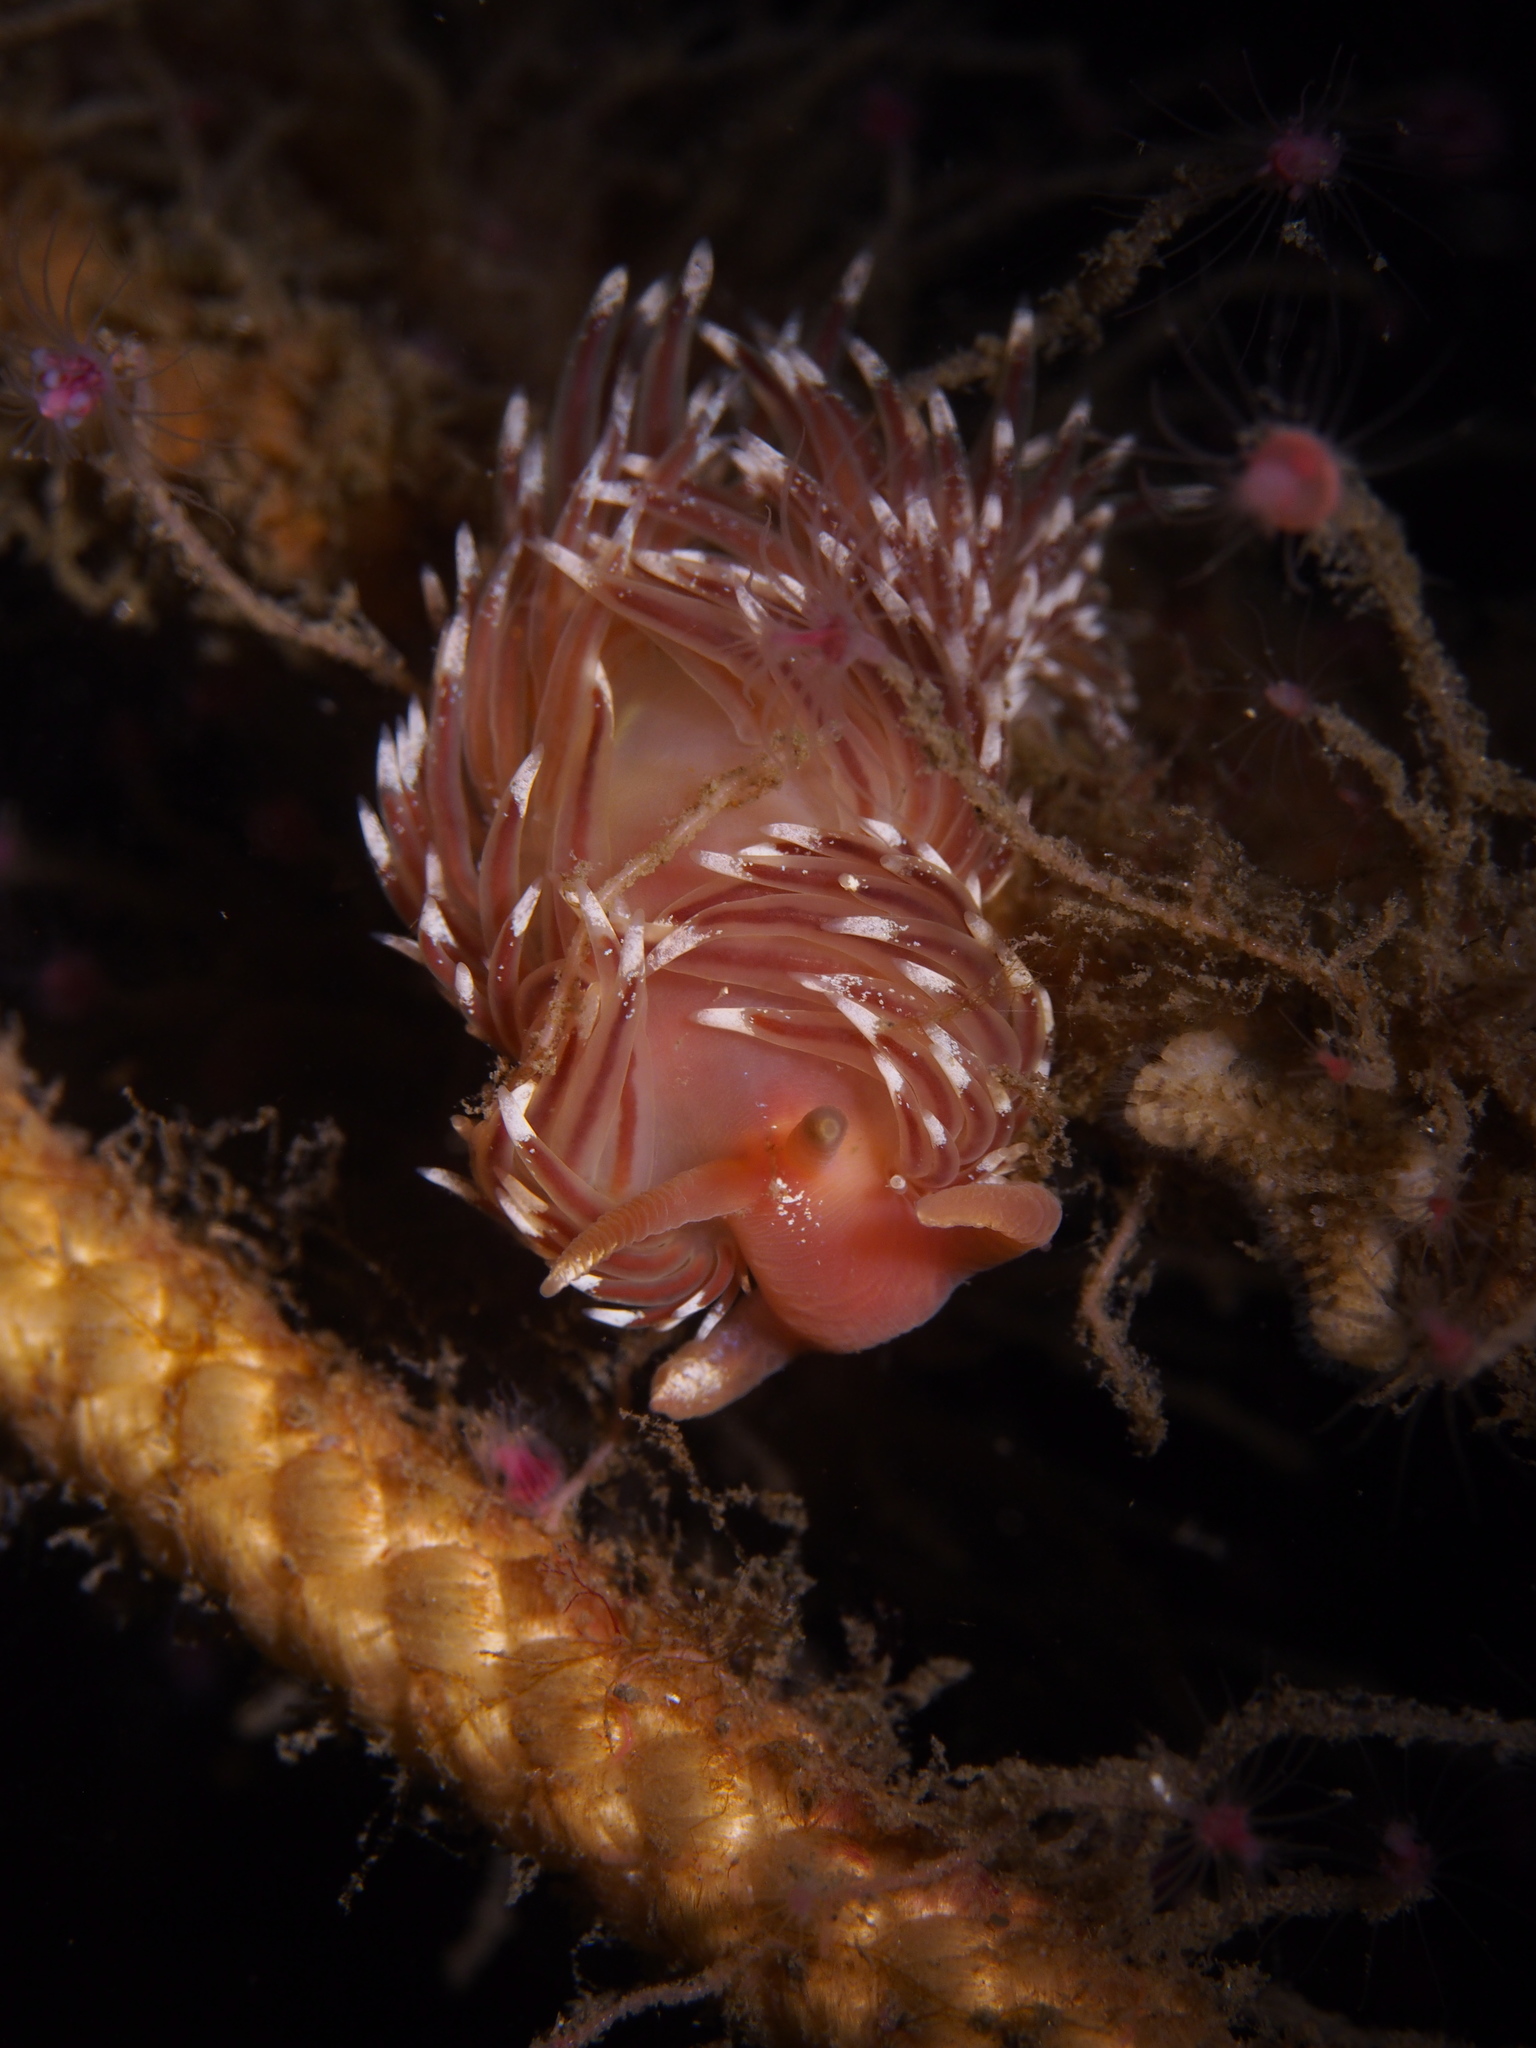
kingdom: Animalia
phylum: Mollusca
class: Gastropoda
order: Nudibranchia
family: Facelinidae
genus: Facelina
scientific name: Facelina bostoniensis
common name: Boston facelina
